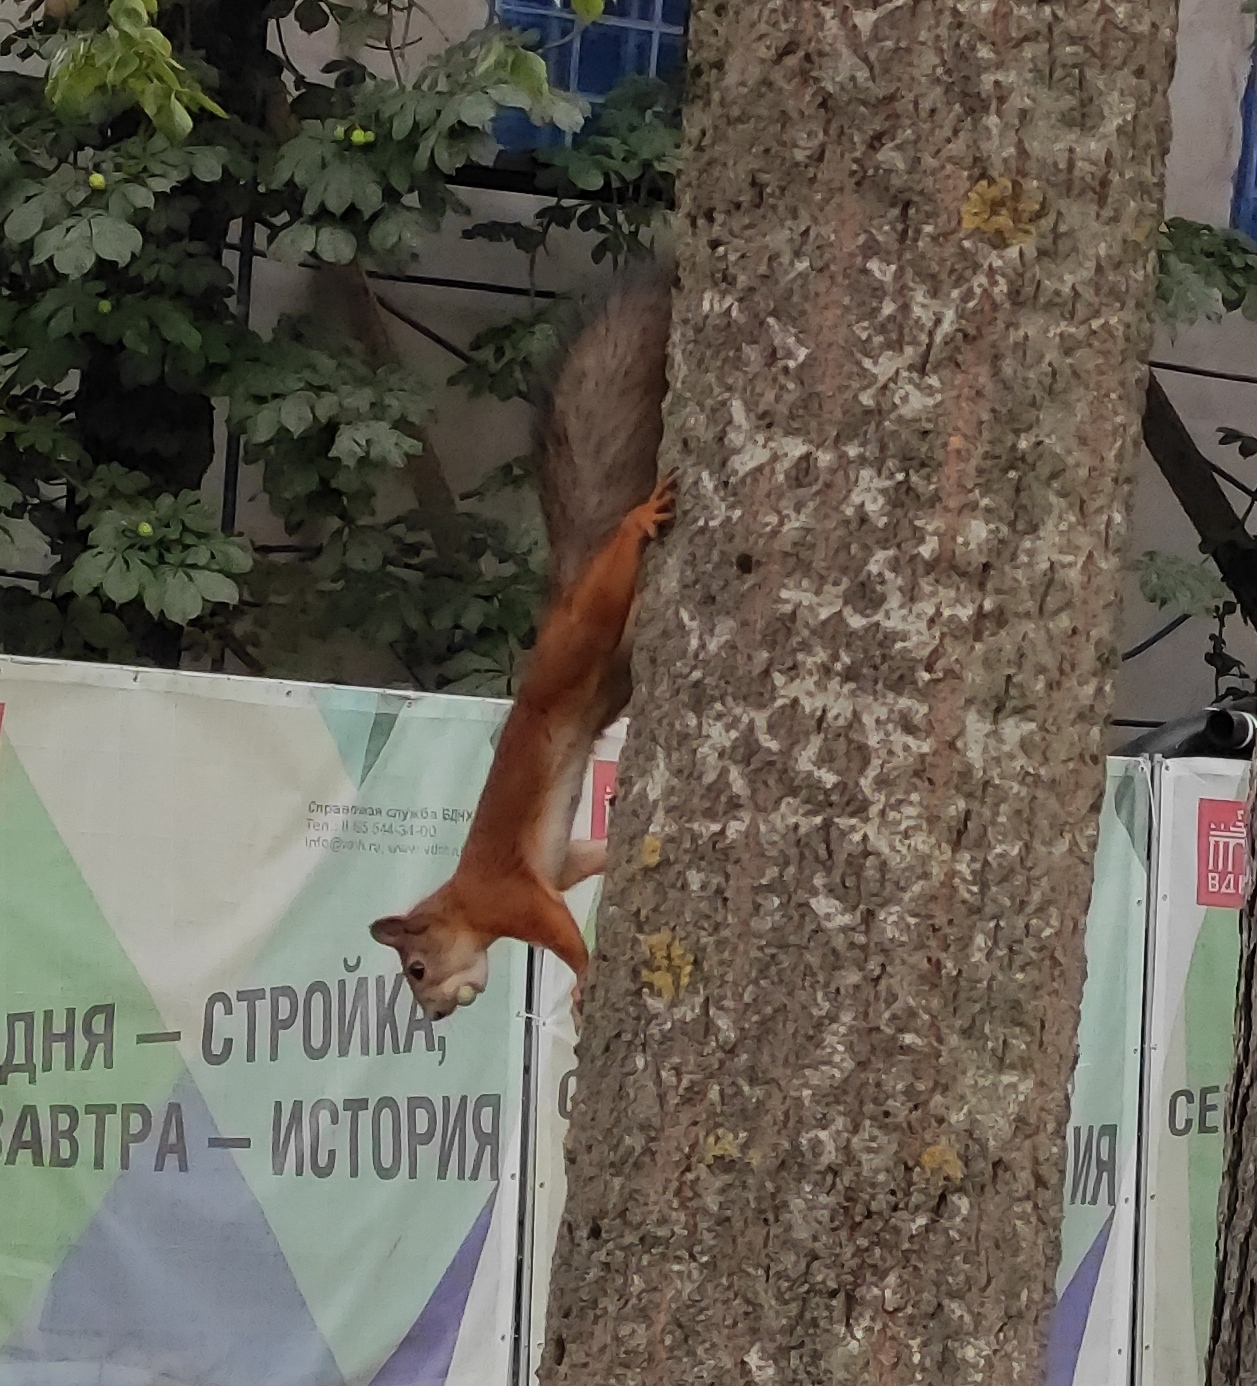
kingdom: Animalia
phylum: Chordata
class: Mammalia
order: Rodentia
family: Sciuridae
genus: Sciurus
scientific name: Sciurus vulgaris
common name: Eurasian red squirrel
